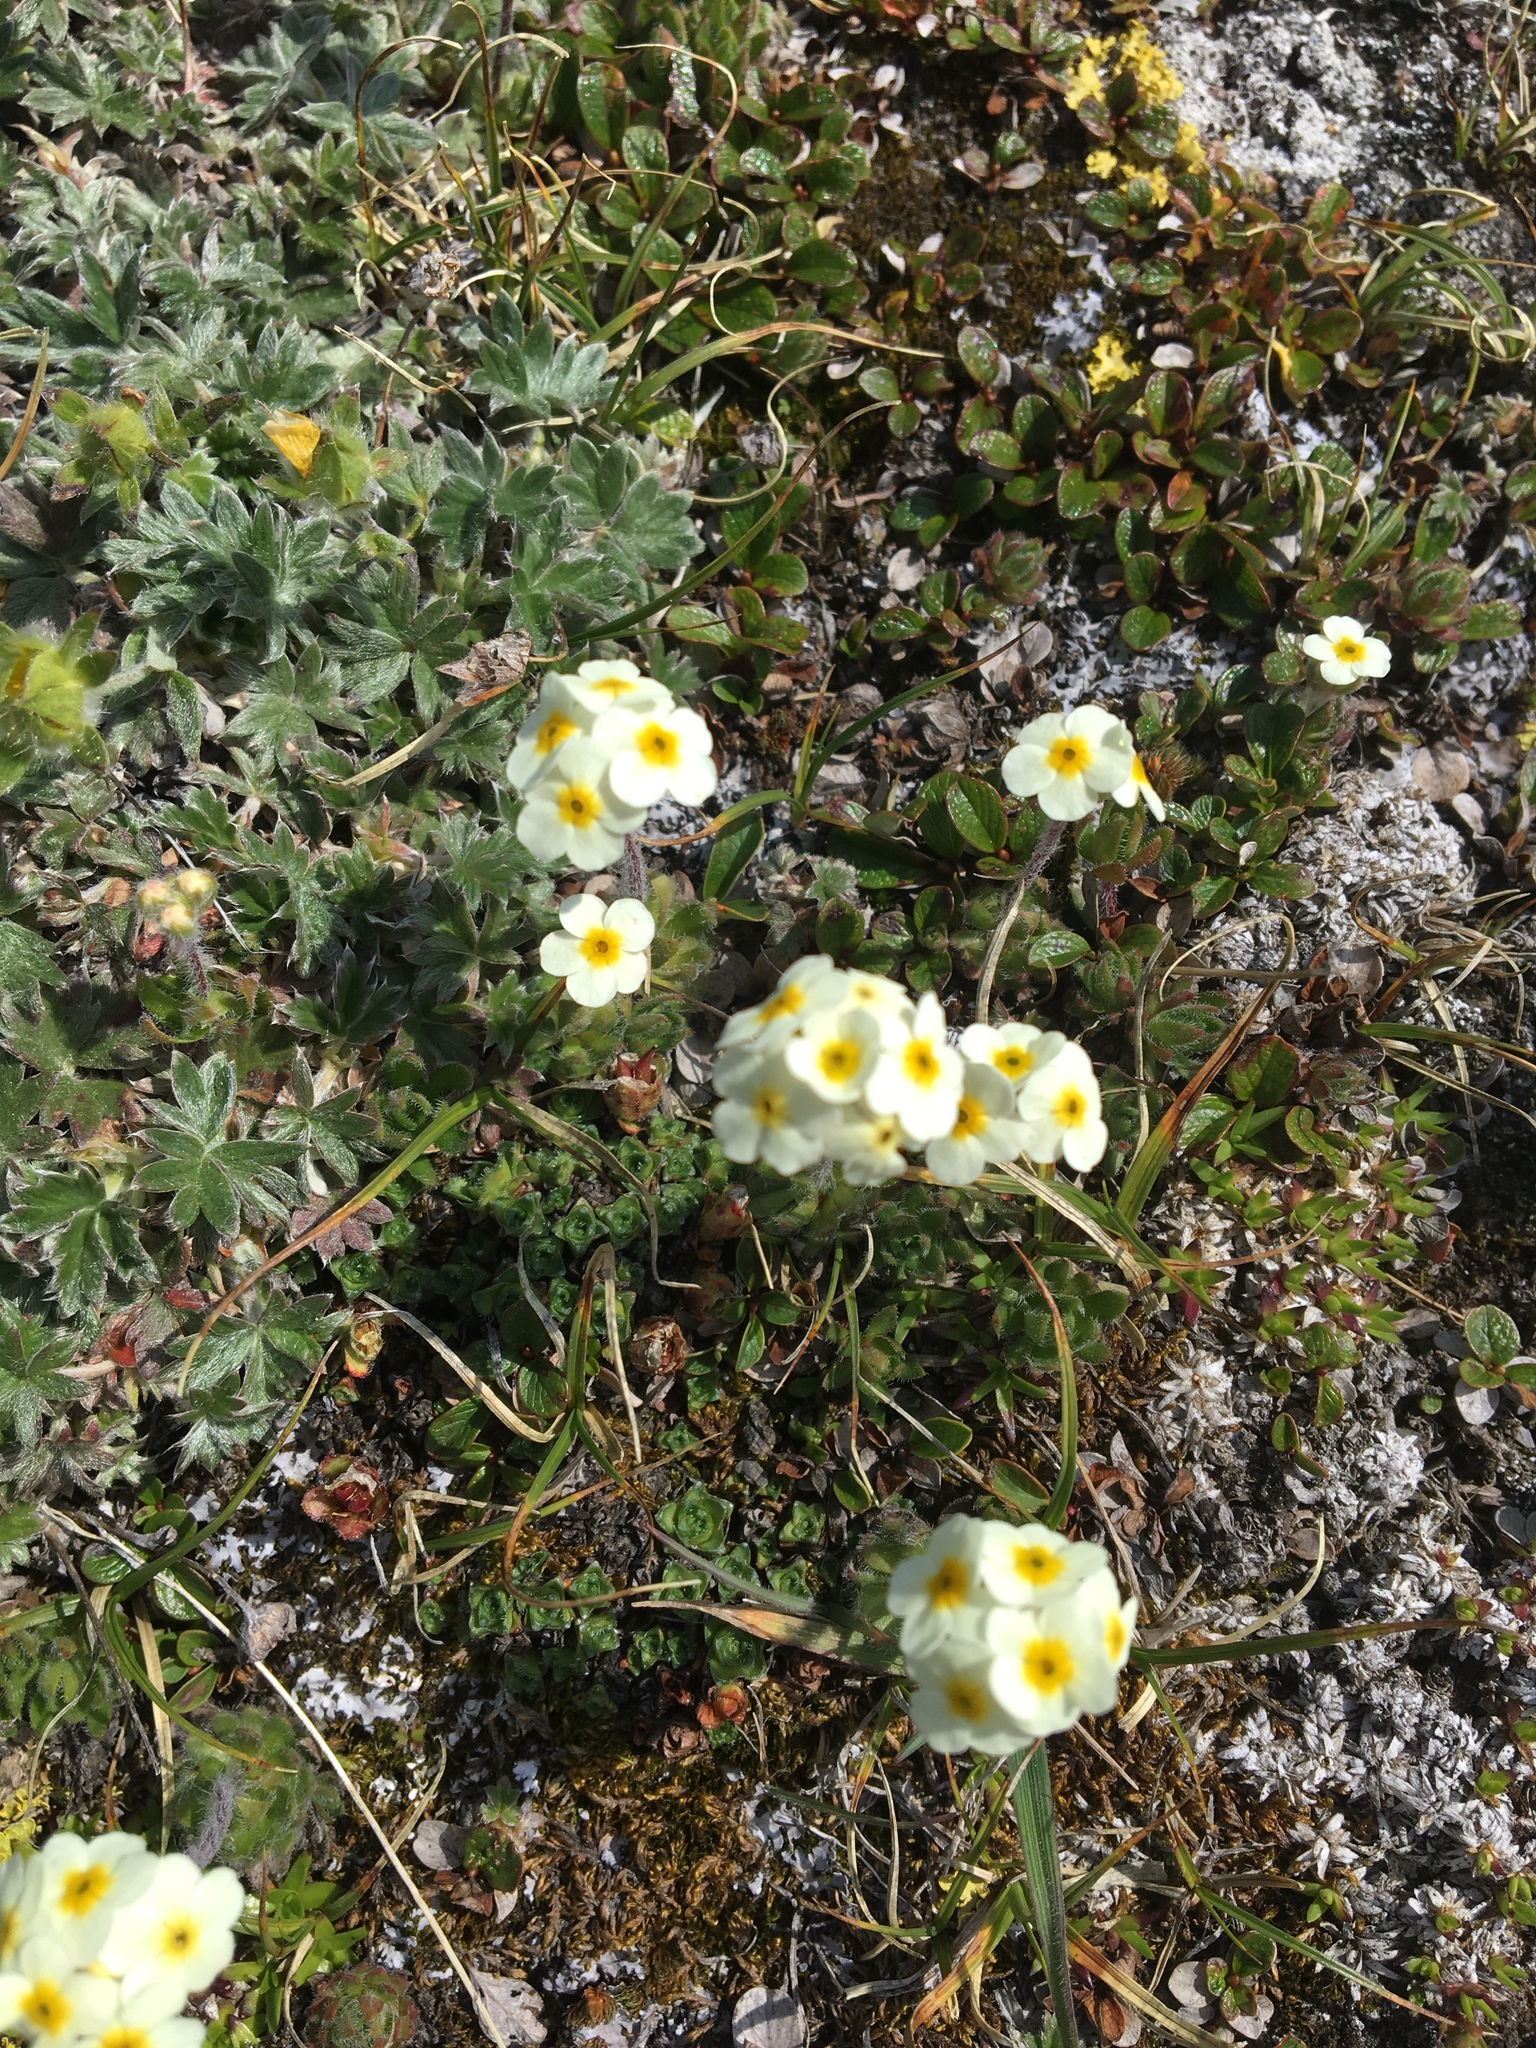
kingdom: Plantae
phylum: Tracheophyta
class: Magnoliopsida
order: Ericales
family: Primulaceae
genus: Androsace
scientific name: Androsace chamaejasme
